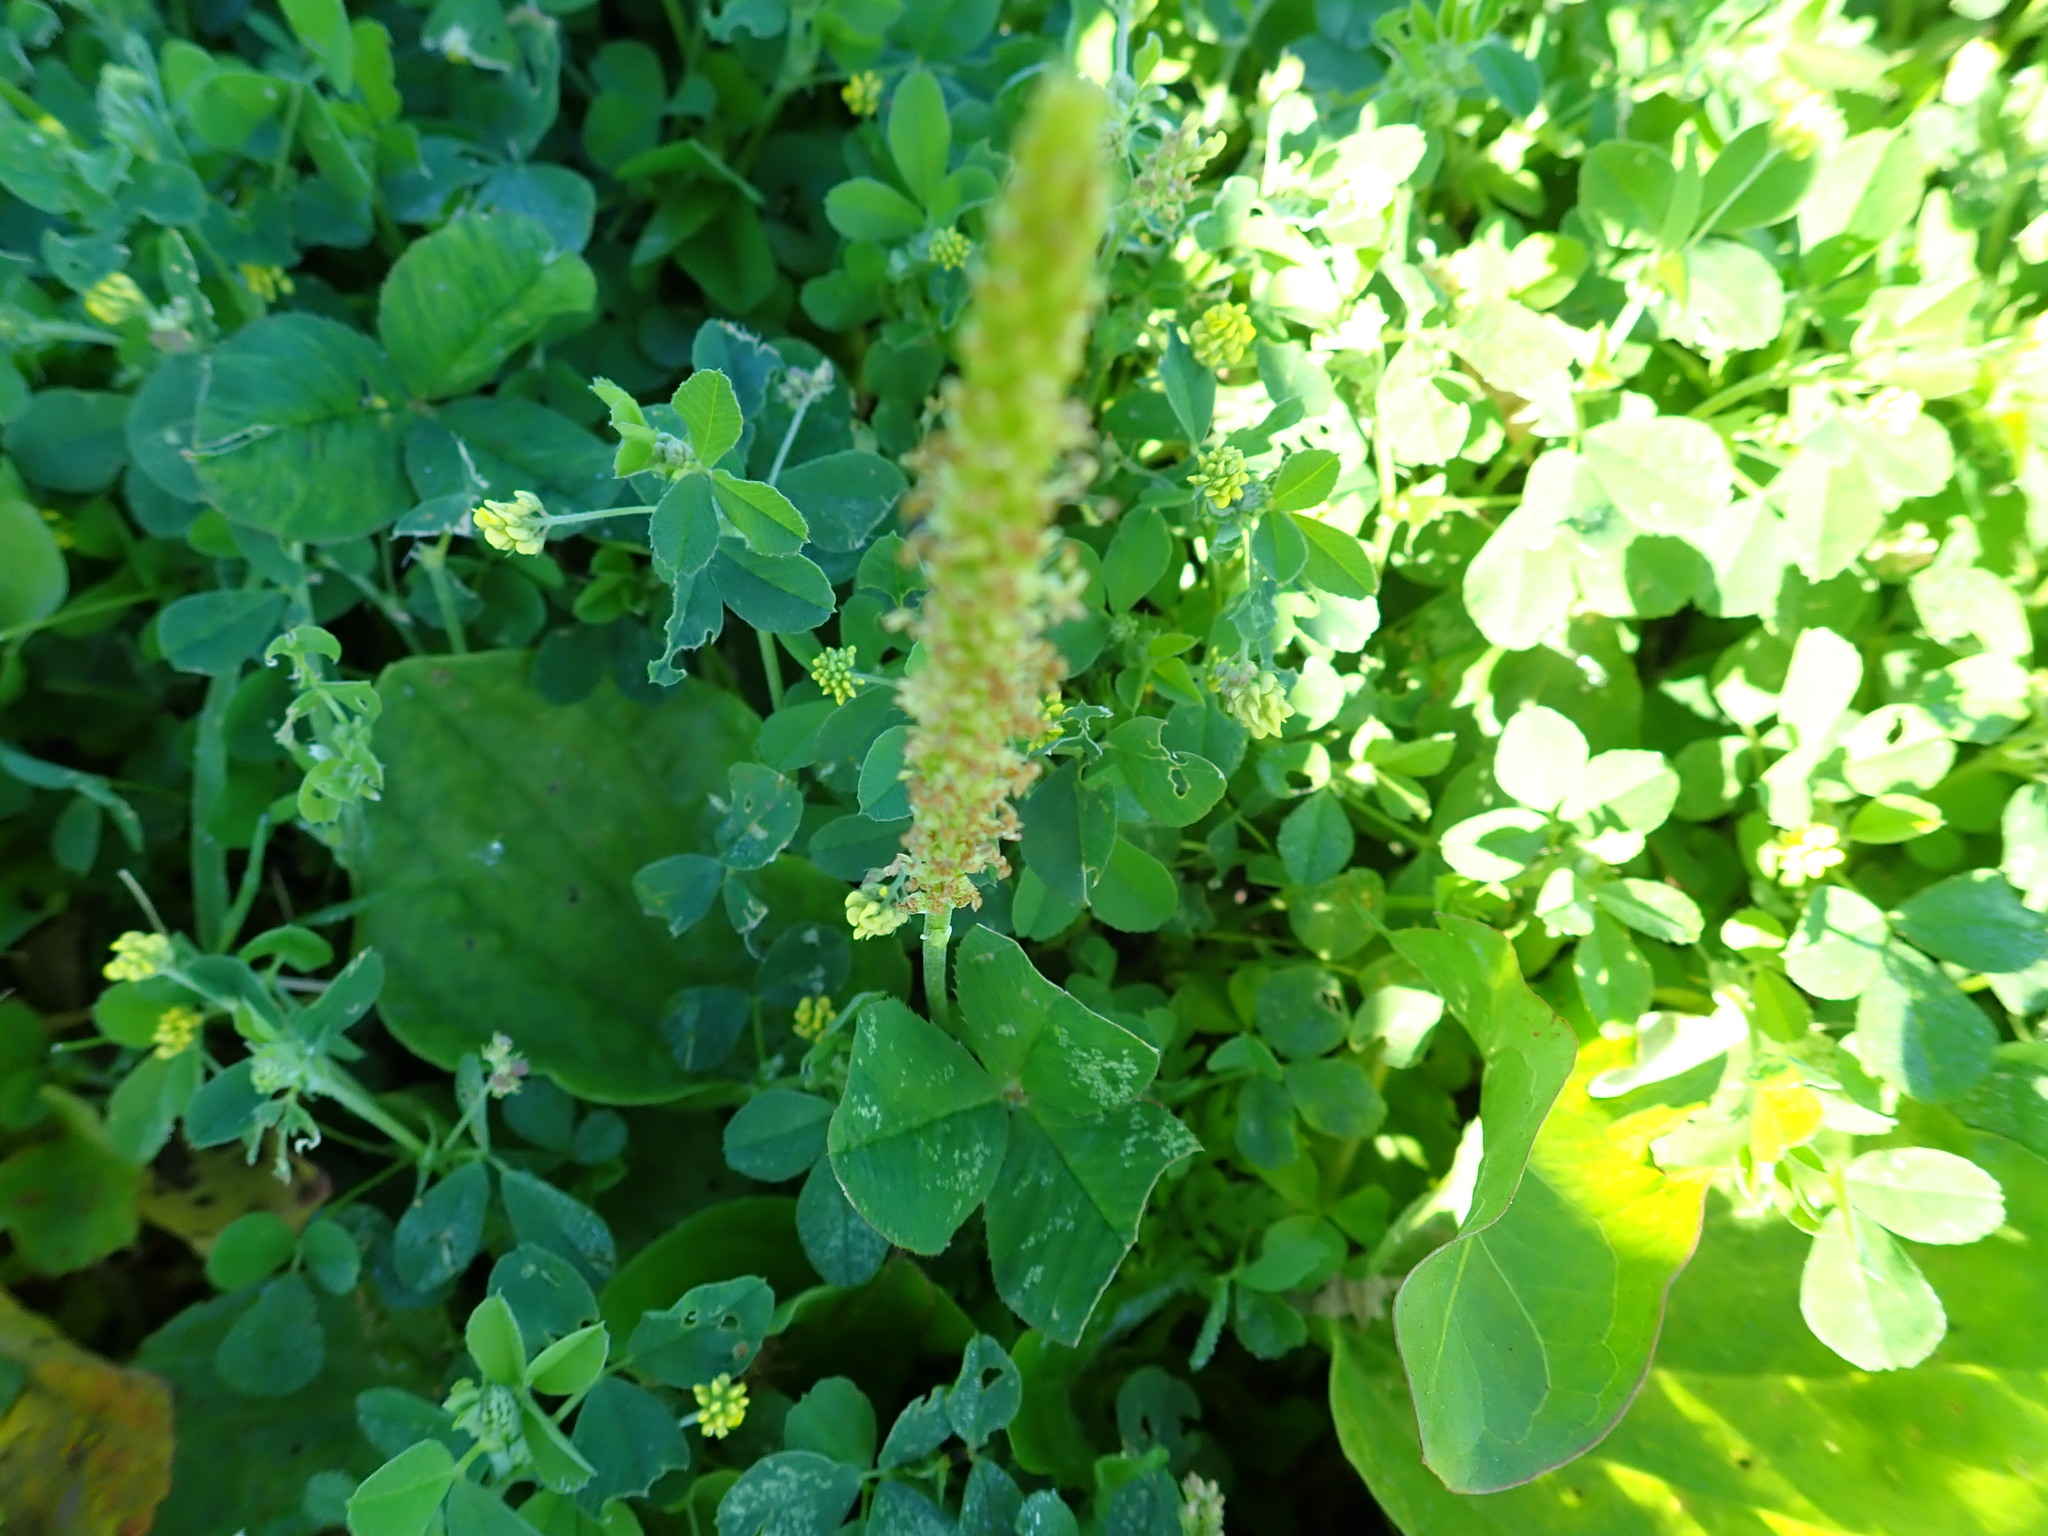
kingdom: Plantae
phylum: Tracheophyta
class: Magnoliopsida
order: Lamiales
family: Plantaginaceae
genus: Plantago
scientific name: Plantago major
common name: Common plantain
